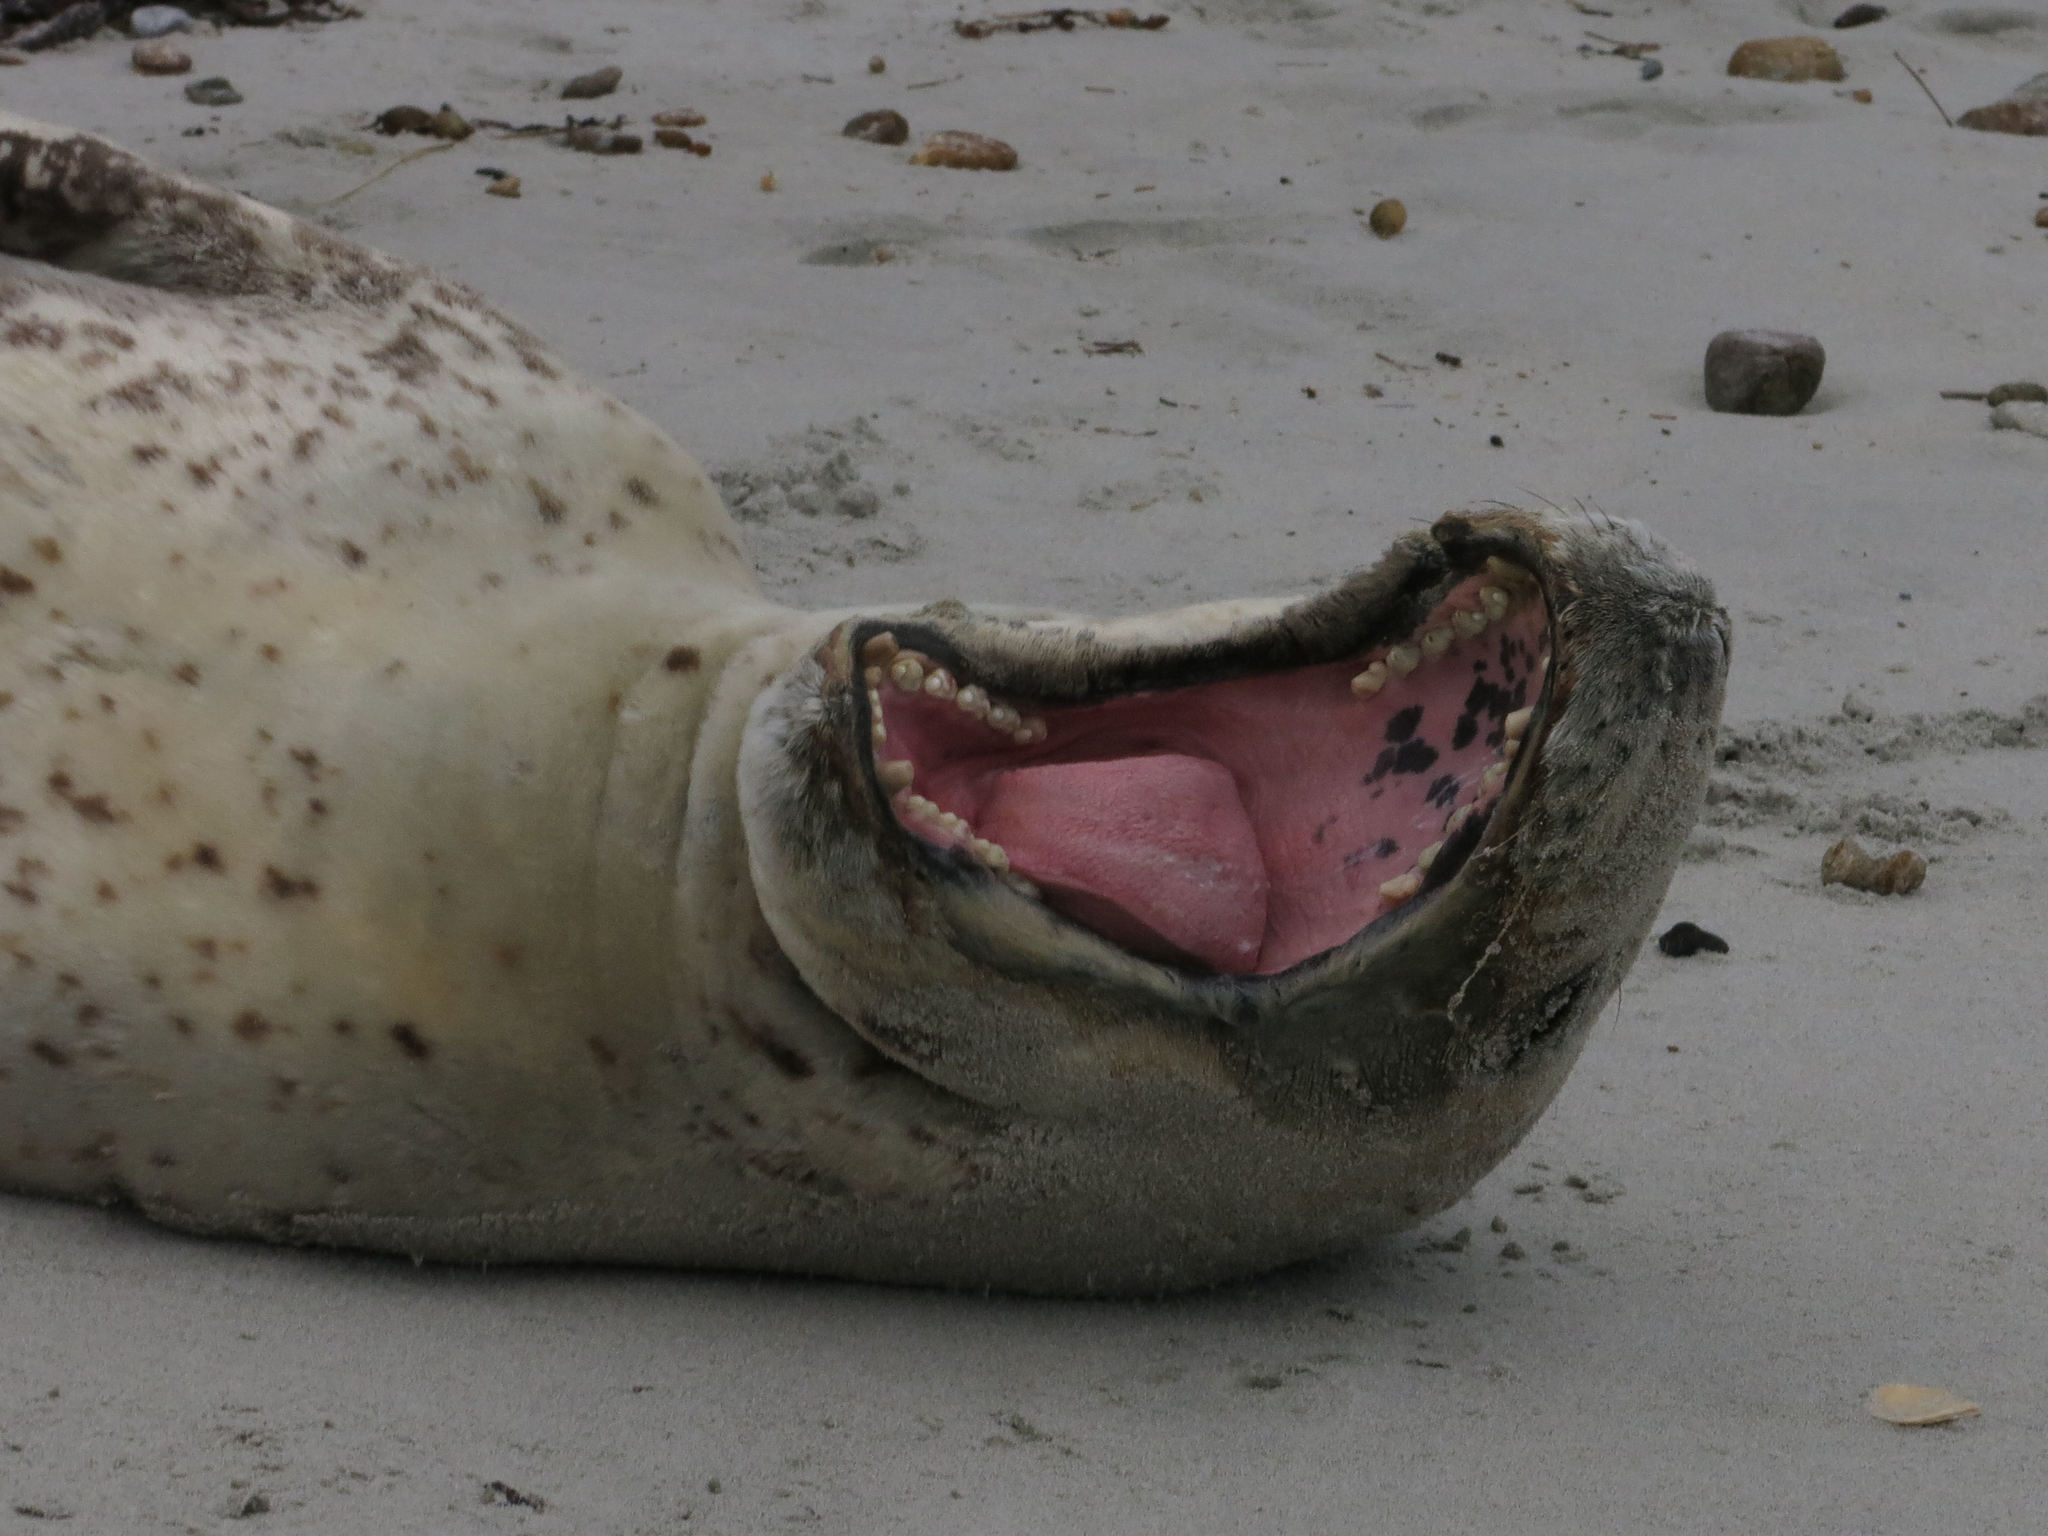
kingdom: Animalia
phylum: Chordata
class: Mammalia
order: Carnivora
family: Phocidae
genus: Hydrurga
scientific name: Hydrurga leptonyx
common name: Leopard seal
